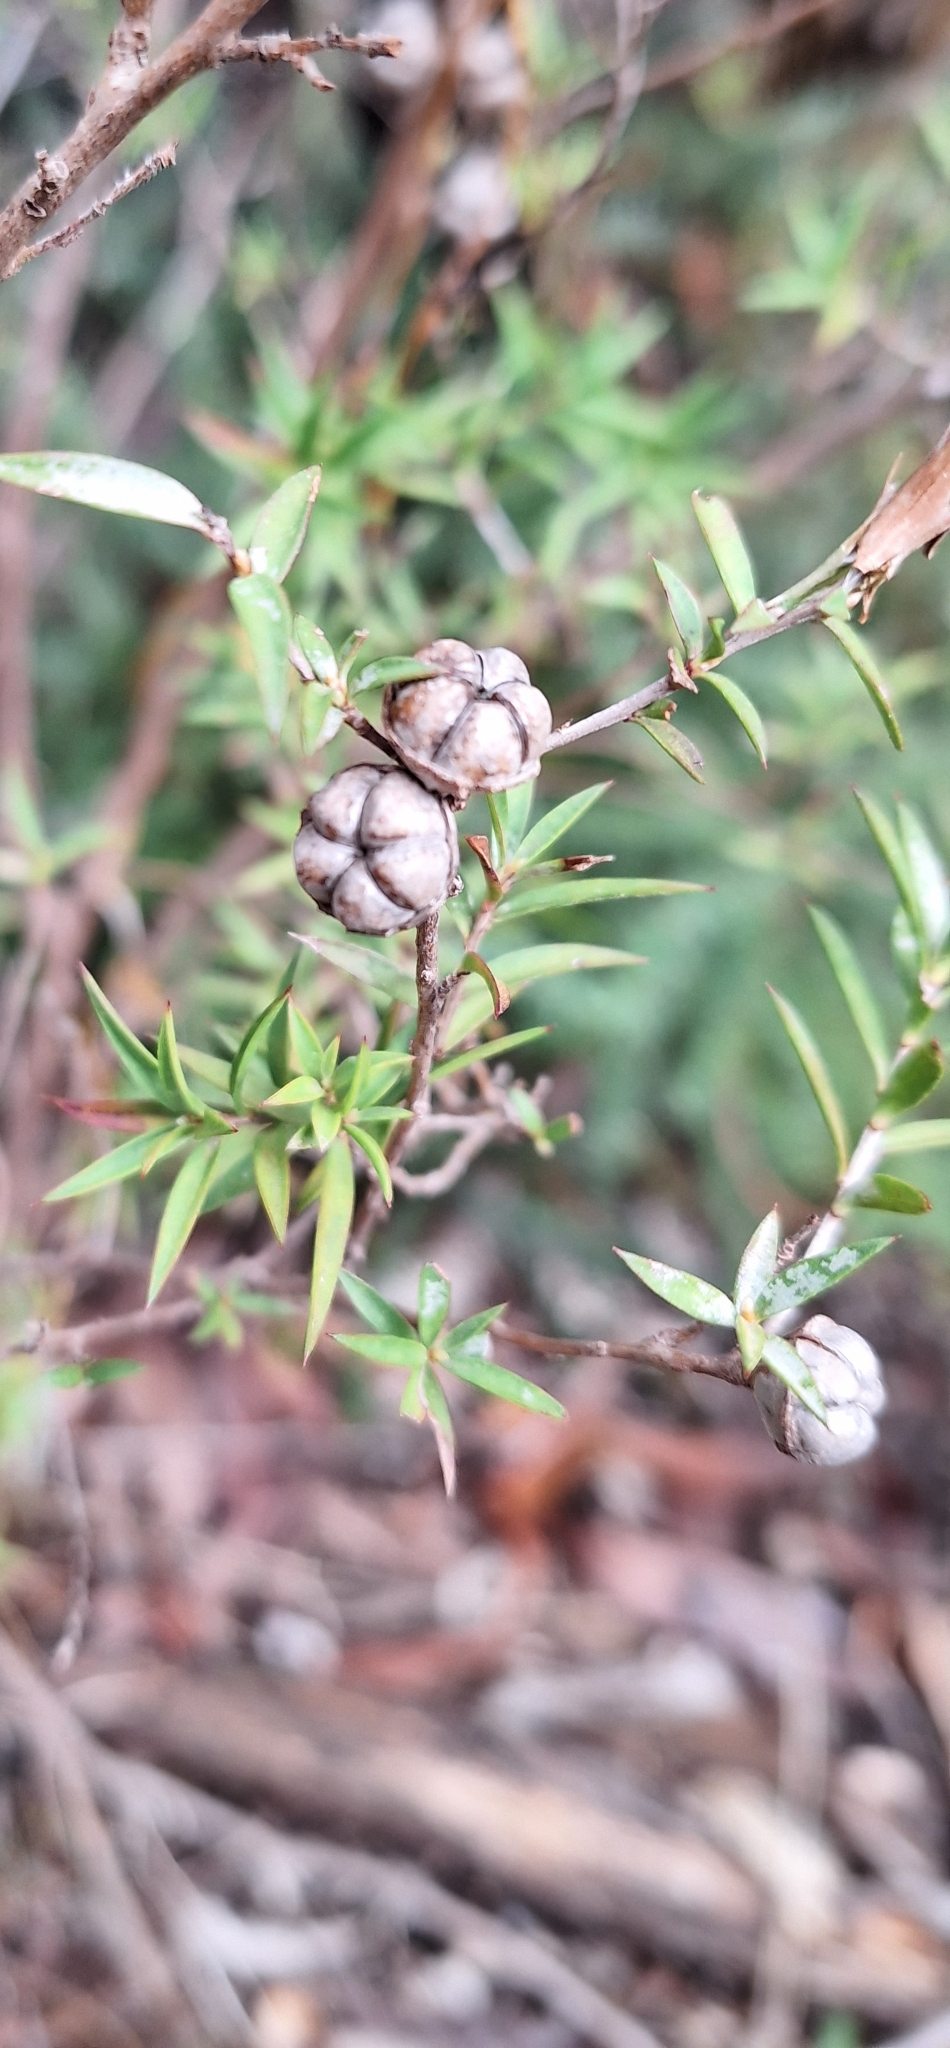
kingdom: Plantae
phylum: Tracheophyta
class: Magnoliopsida
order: Myrtales
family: Myrtaceae
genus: Leptospermum
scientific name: Leptospermum continentale
